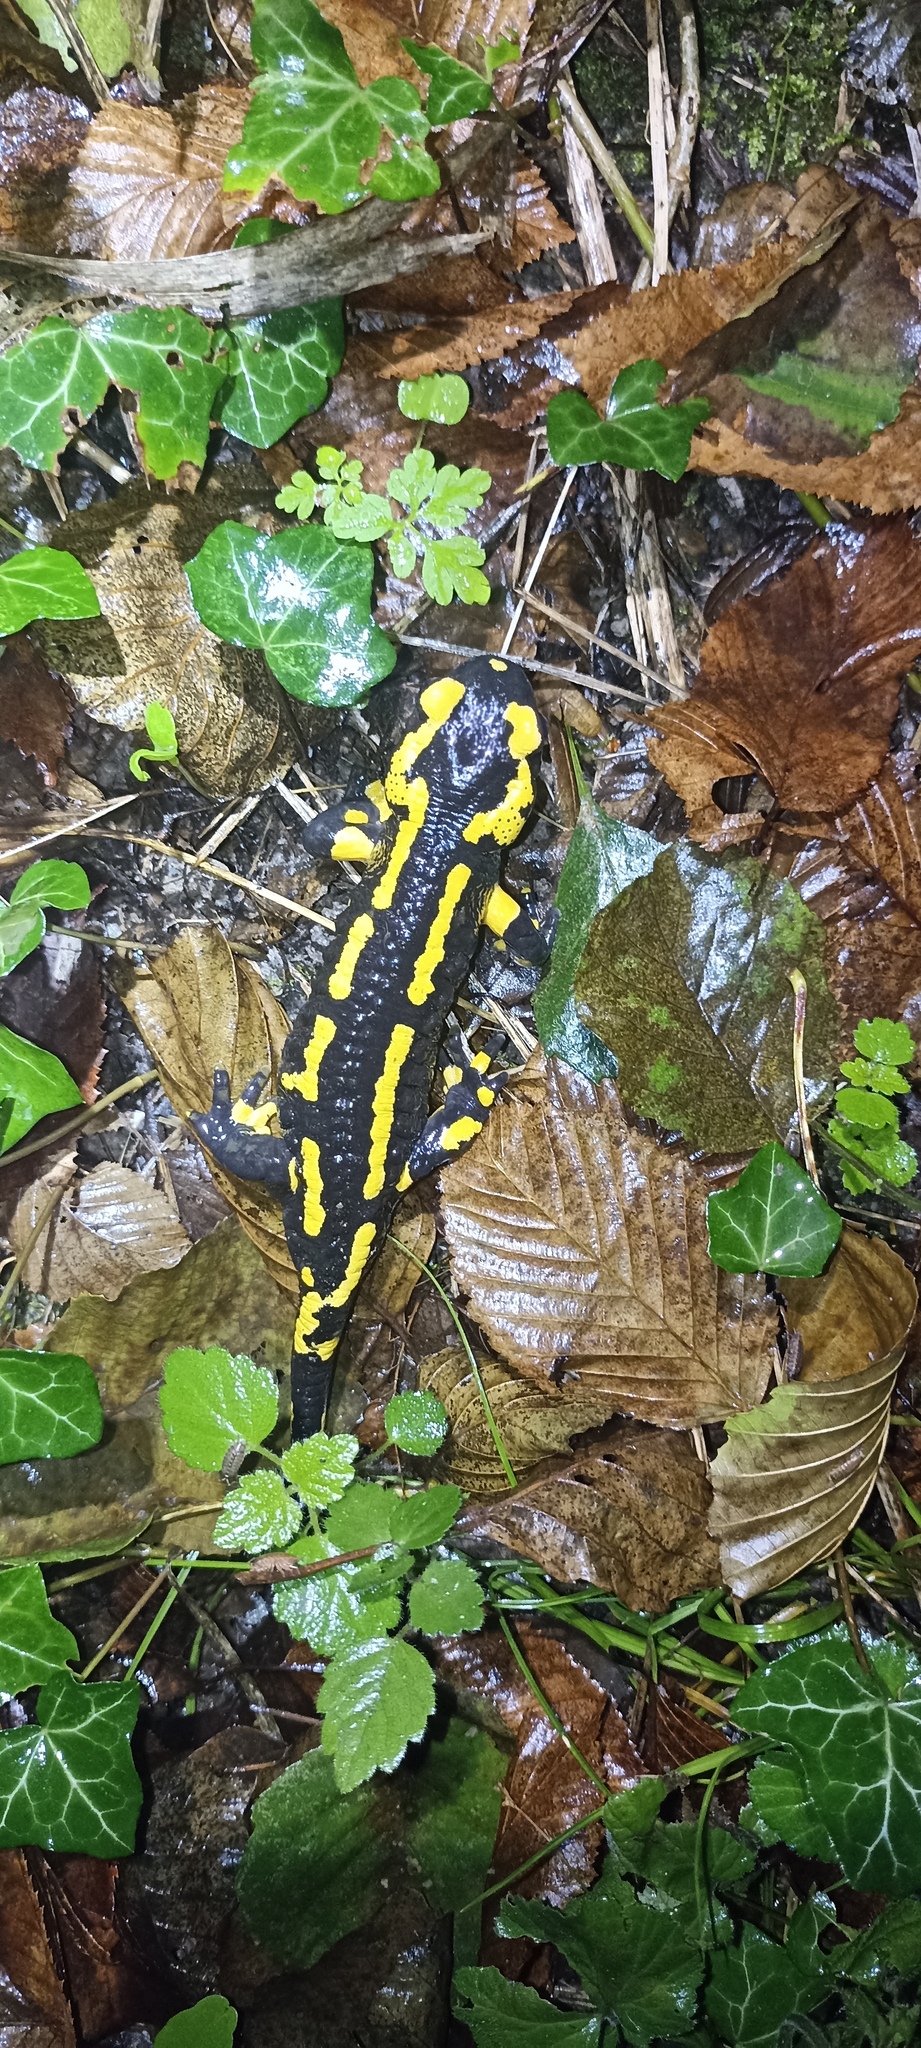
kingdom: Animalia
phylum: Chordata
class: Amphibia
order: Caudata
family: Salamandridae
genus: Salamandra
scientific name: Salamandra salamandra
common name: Fire salamander
